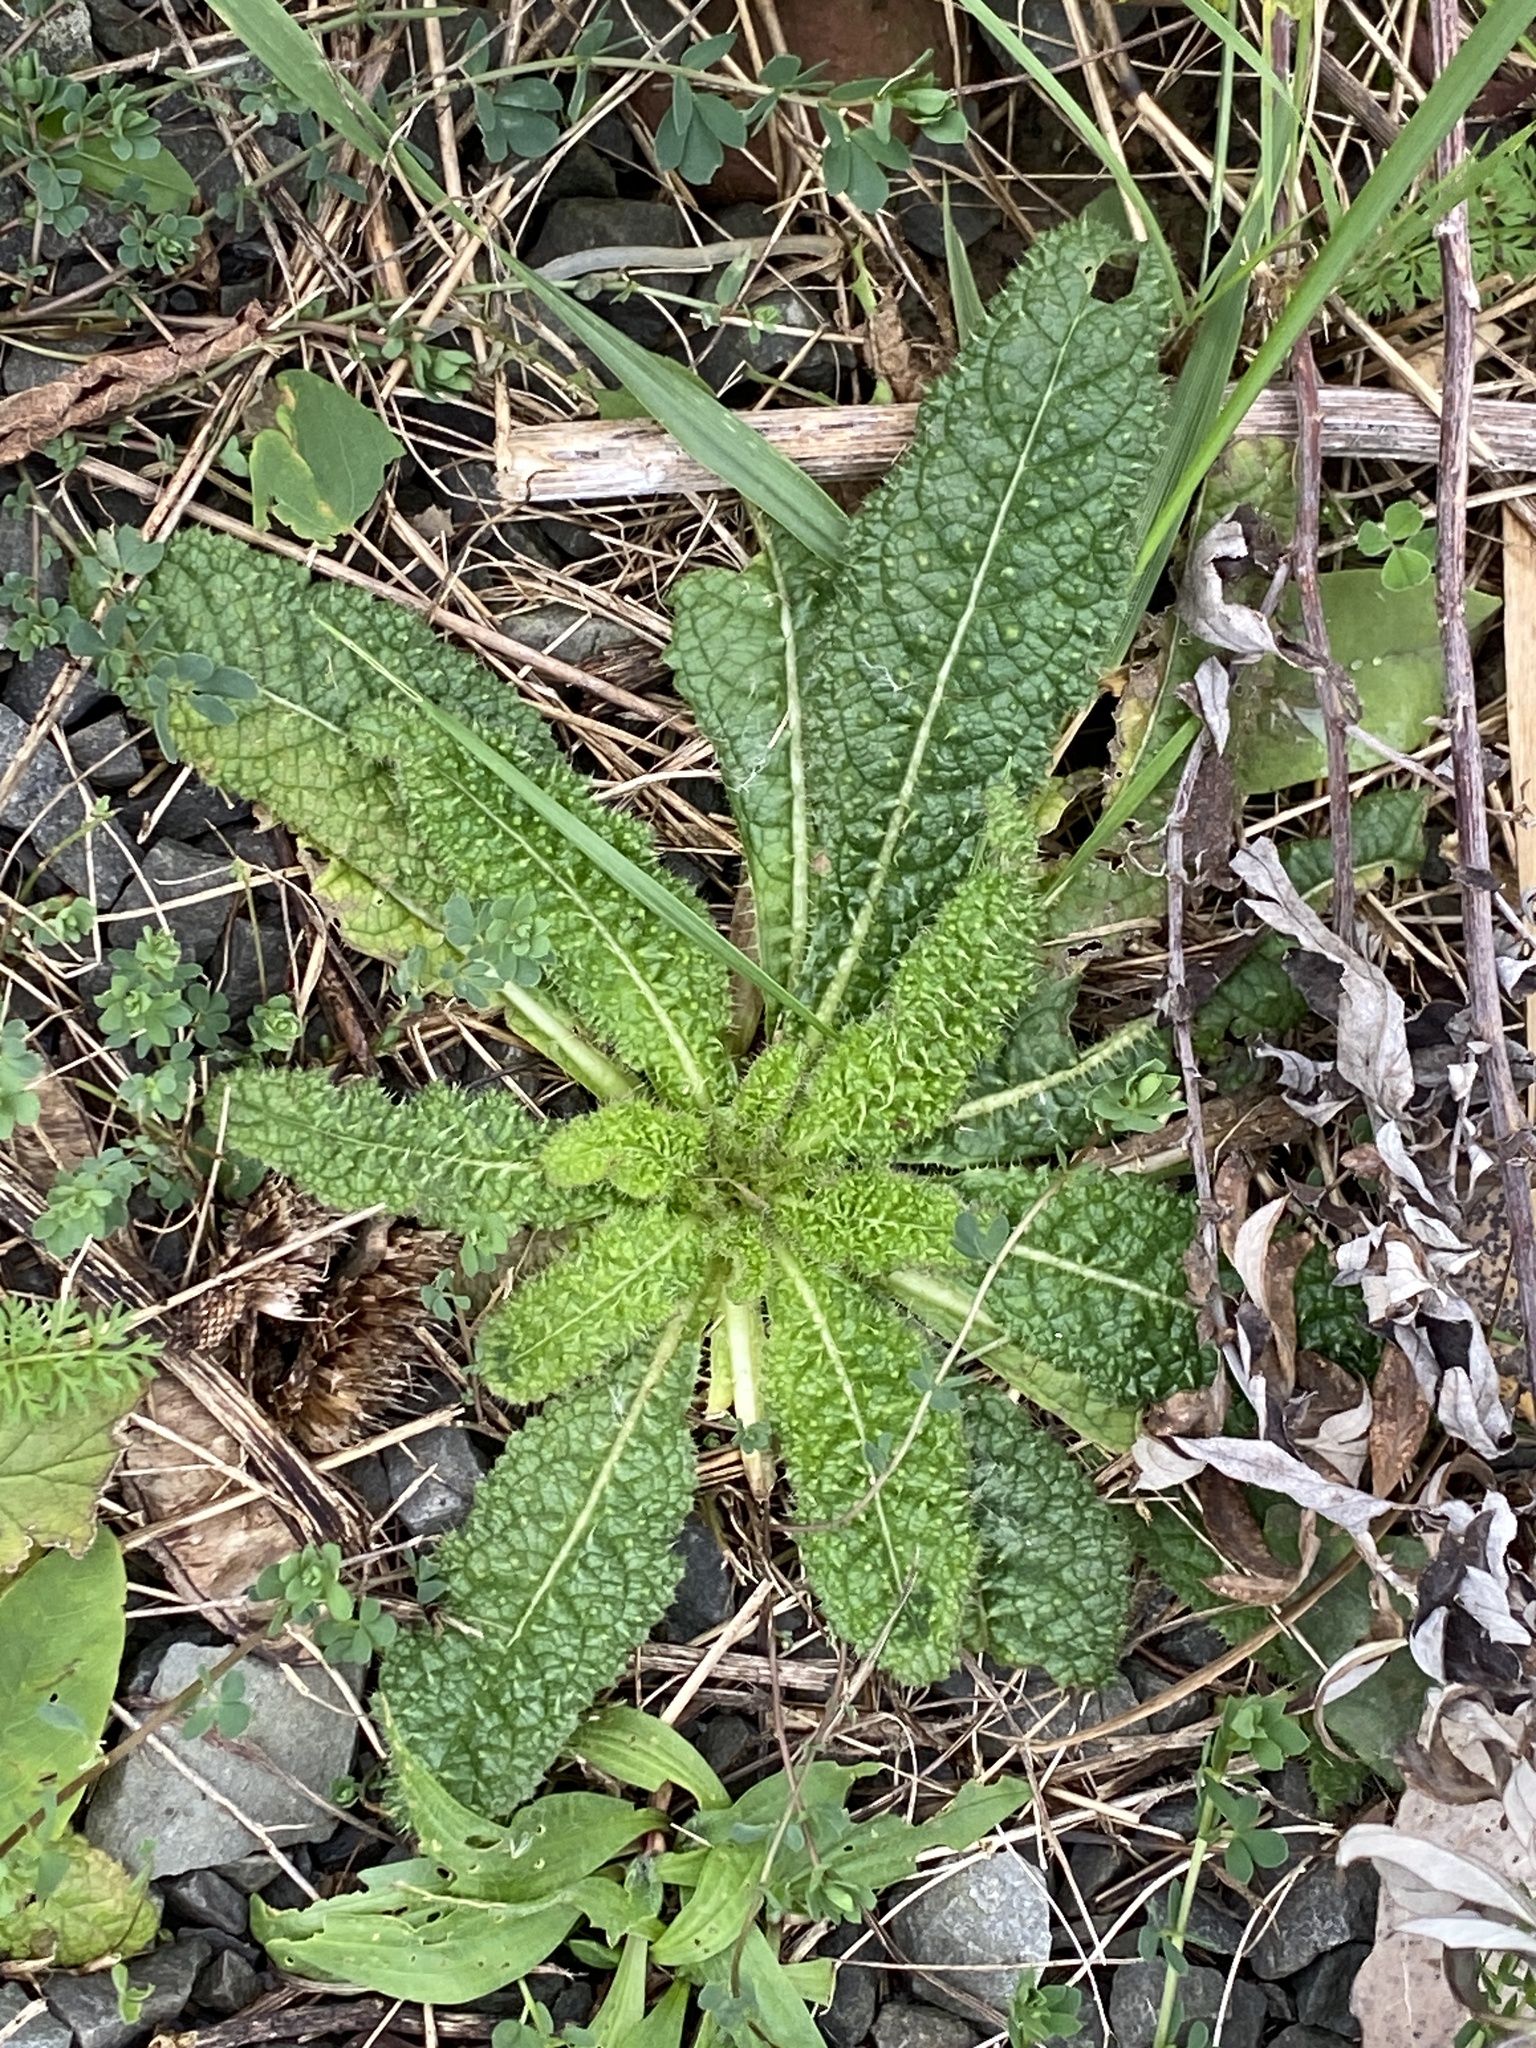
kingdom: Plantae
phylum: Tracheophyta
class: Magnoliopsida
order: Dipsacales
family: Caprifoliaceae
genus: Dipsacus
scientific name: Dipsacus fullonum
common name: Teasel
